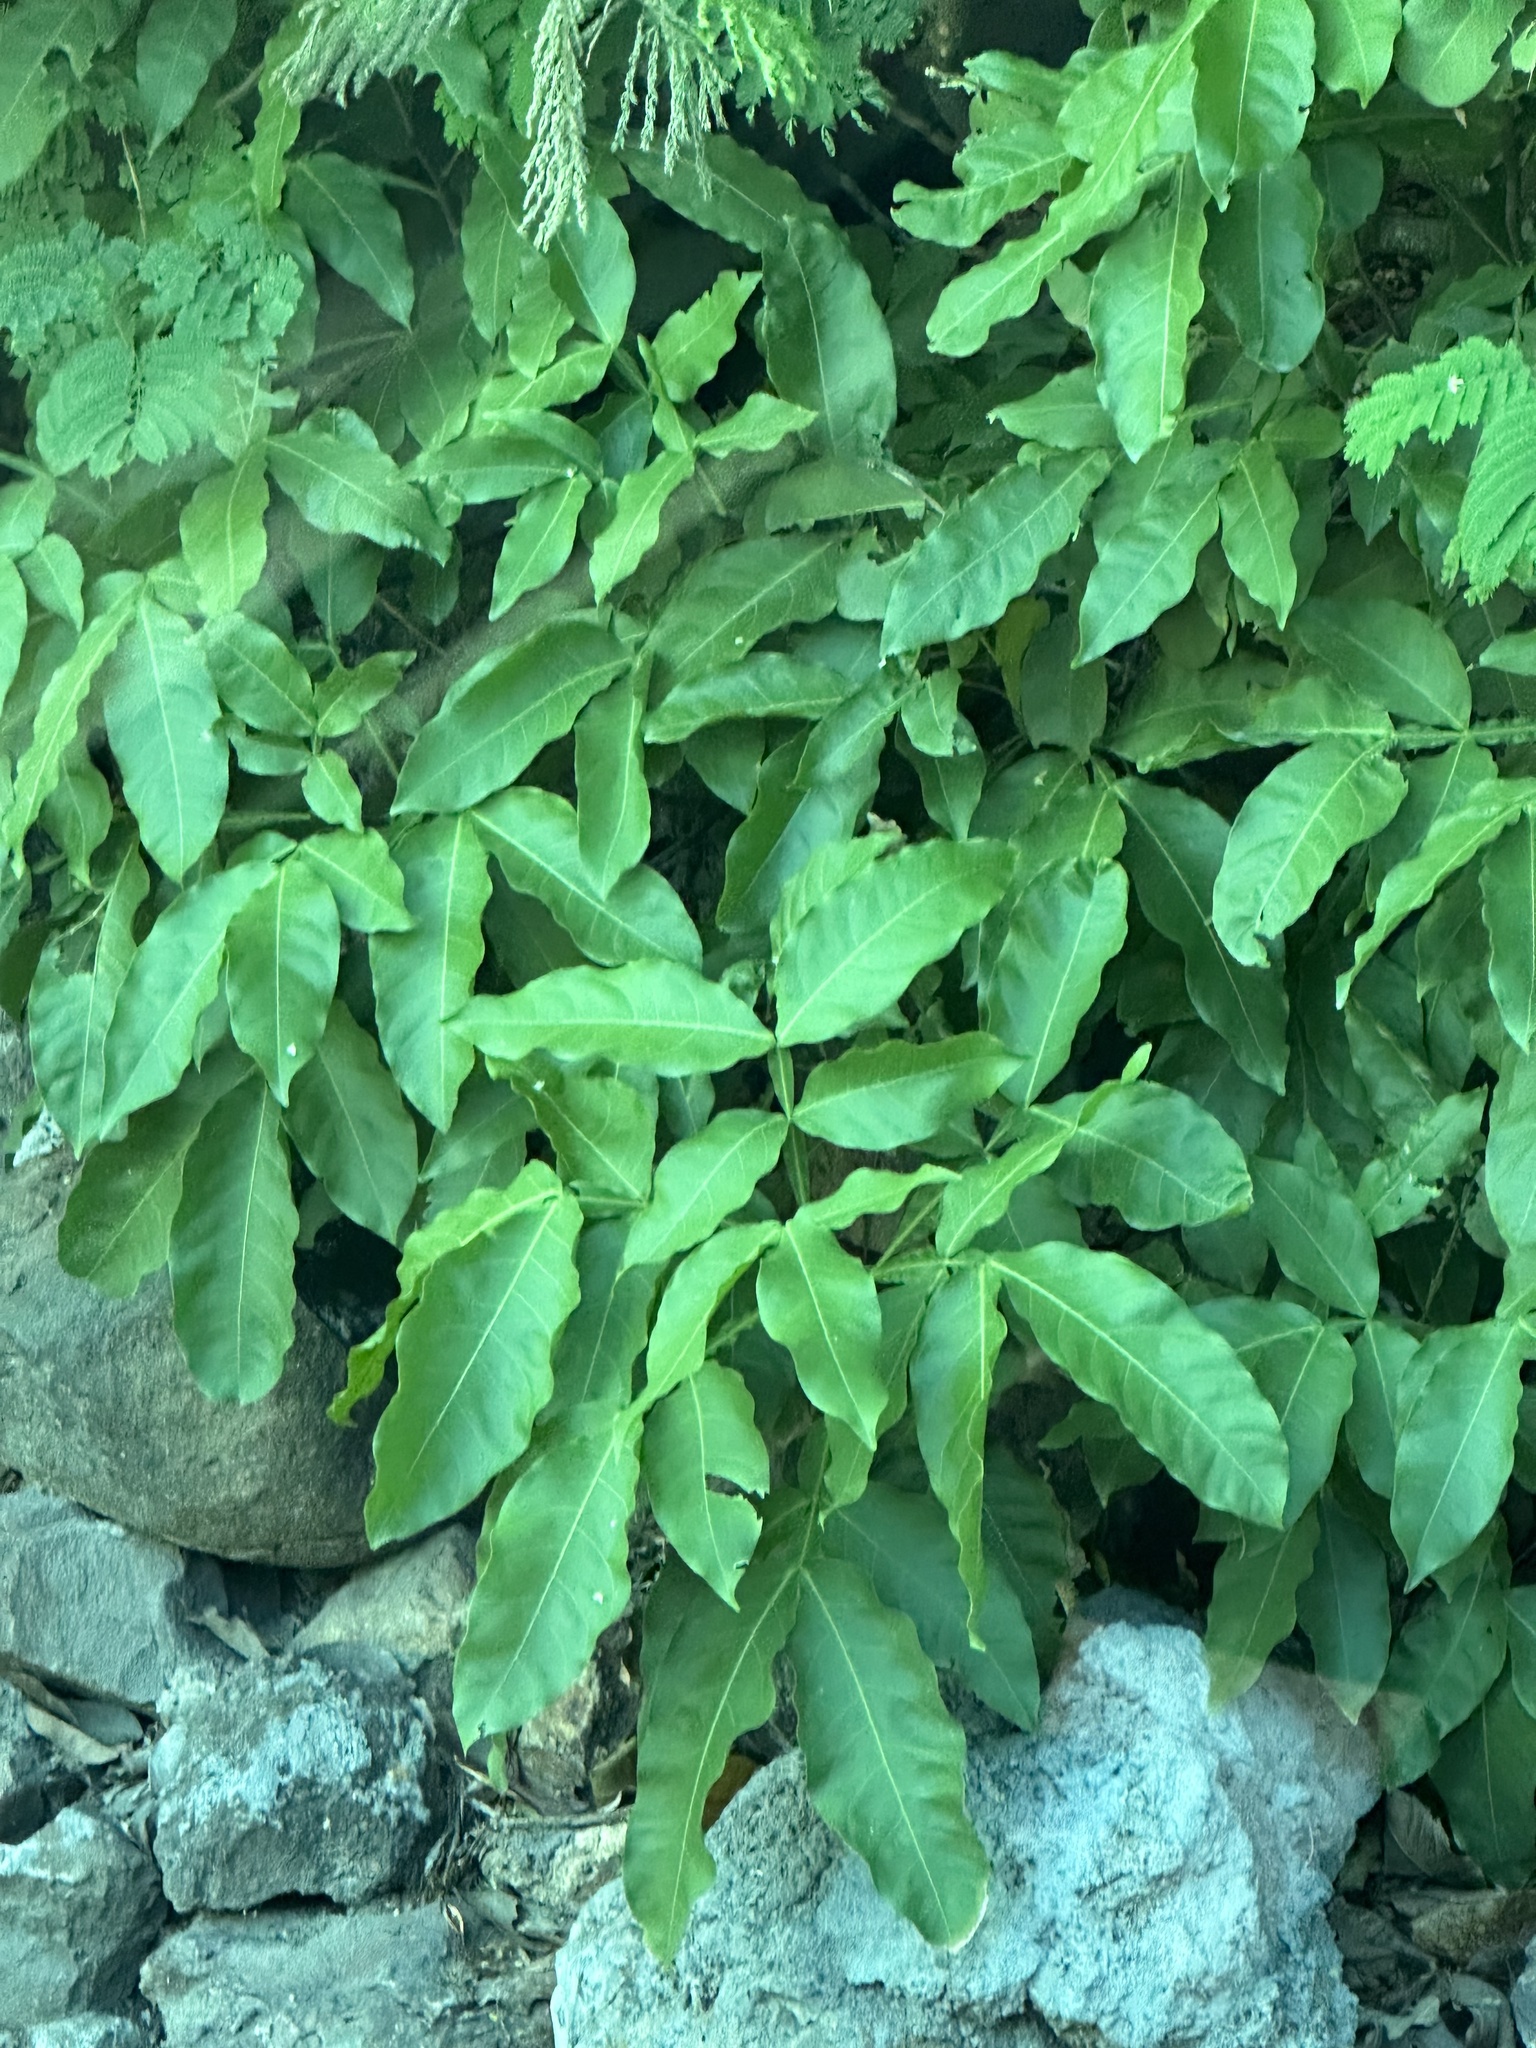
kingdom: Plantae
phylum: Tracheophyta
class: Magnoliopsida
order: Sapindales
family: Sapindaceae
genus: Melicoccus
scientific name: Melicoccus bijugatus
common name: Spanish lime
